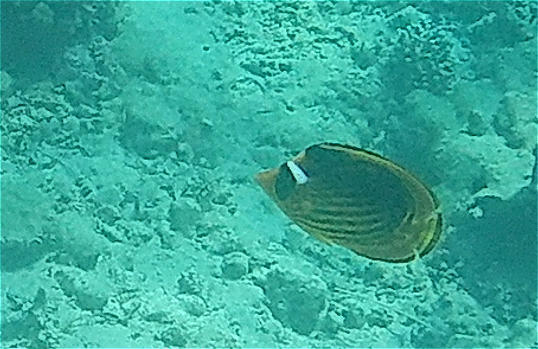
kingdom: Animalia
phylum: Chordata
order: Perciformes
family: Chaetodontidae
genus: Chaetodon
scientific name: Chaetodon fasciatus
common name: Diagonal butterflyfish
